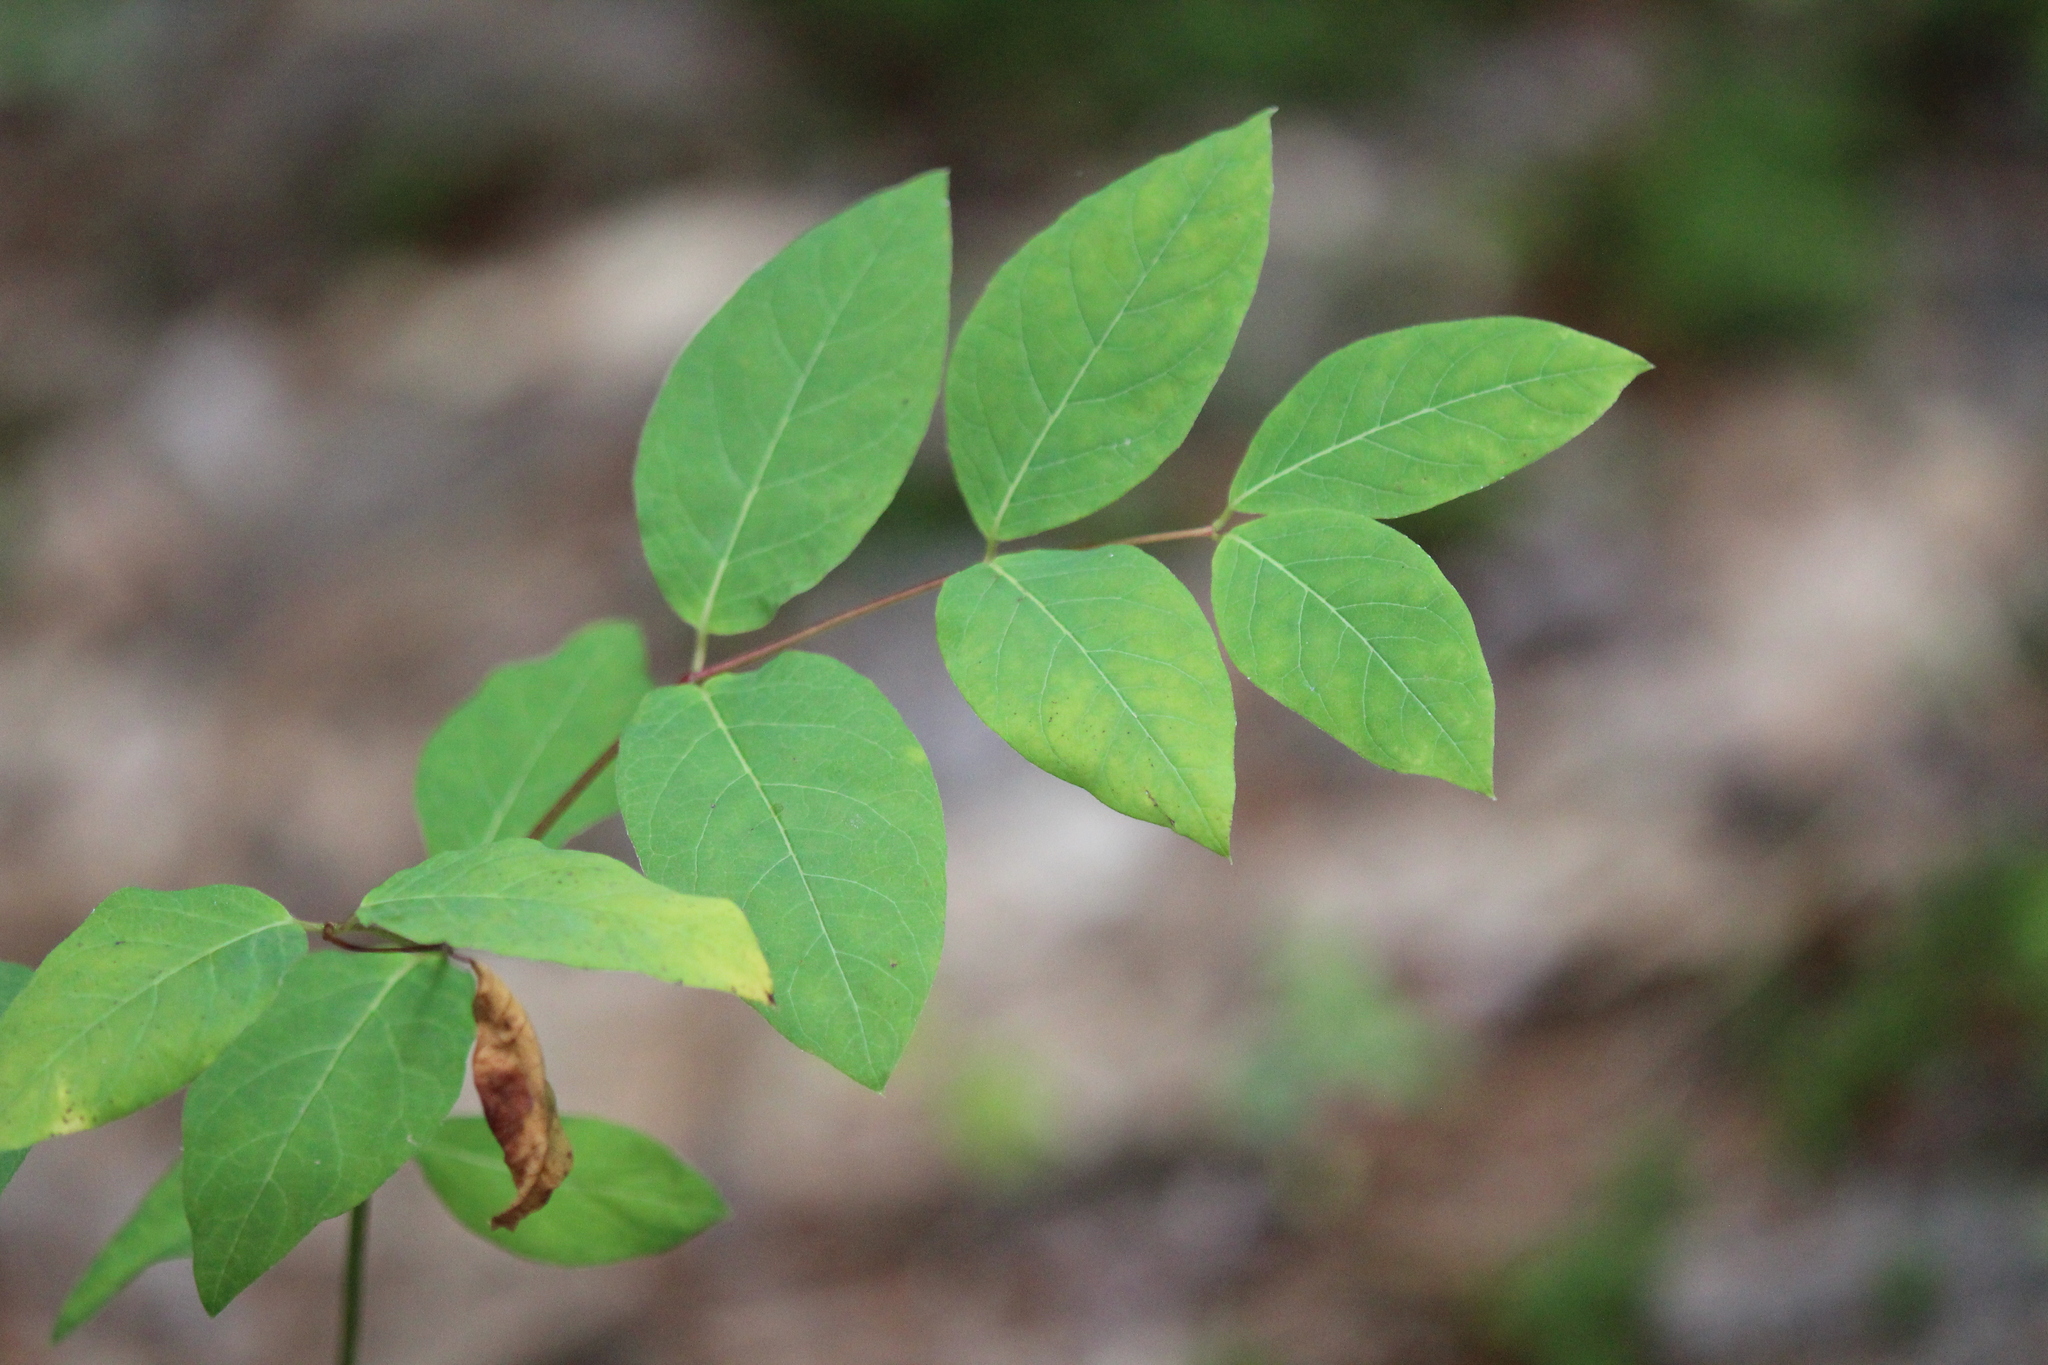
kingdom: Plantae
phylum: Tracheophyta
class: Magnoliopsida
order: Gentianales
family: Apocynaceae
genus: Apocynum
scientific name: Apocynum androsaemifolium
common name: Spreading dogbane
